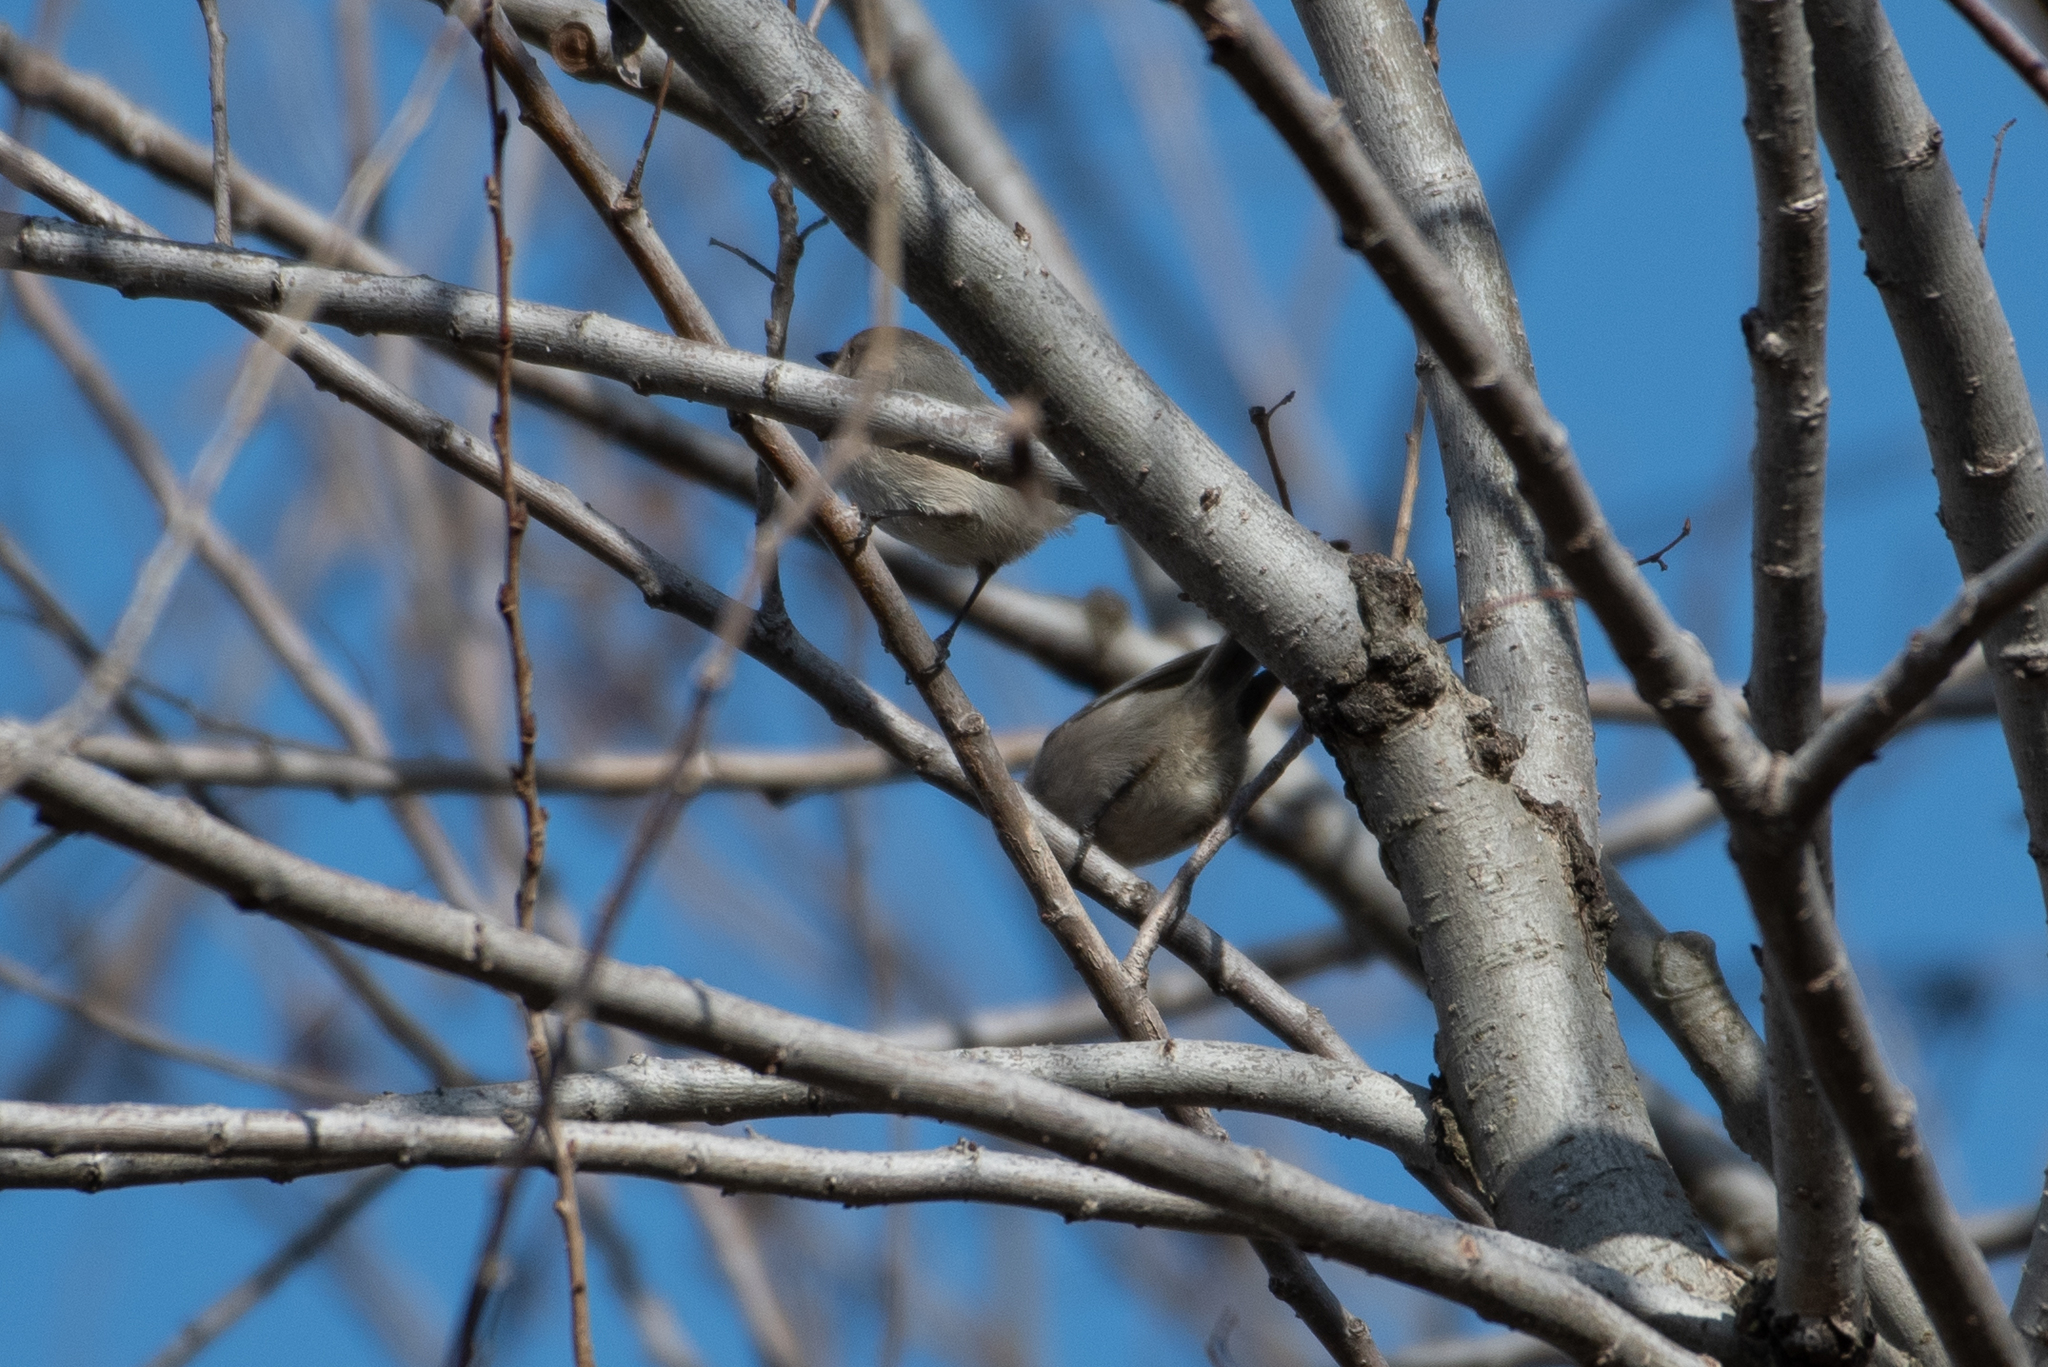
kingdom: Animalia
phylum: Chordata
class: Aves
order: Passeriformes
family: Aegithalidae
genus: Psaltriparus
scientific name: Psaltriparus minimus
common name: American bushtit
